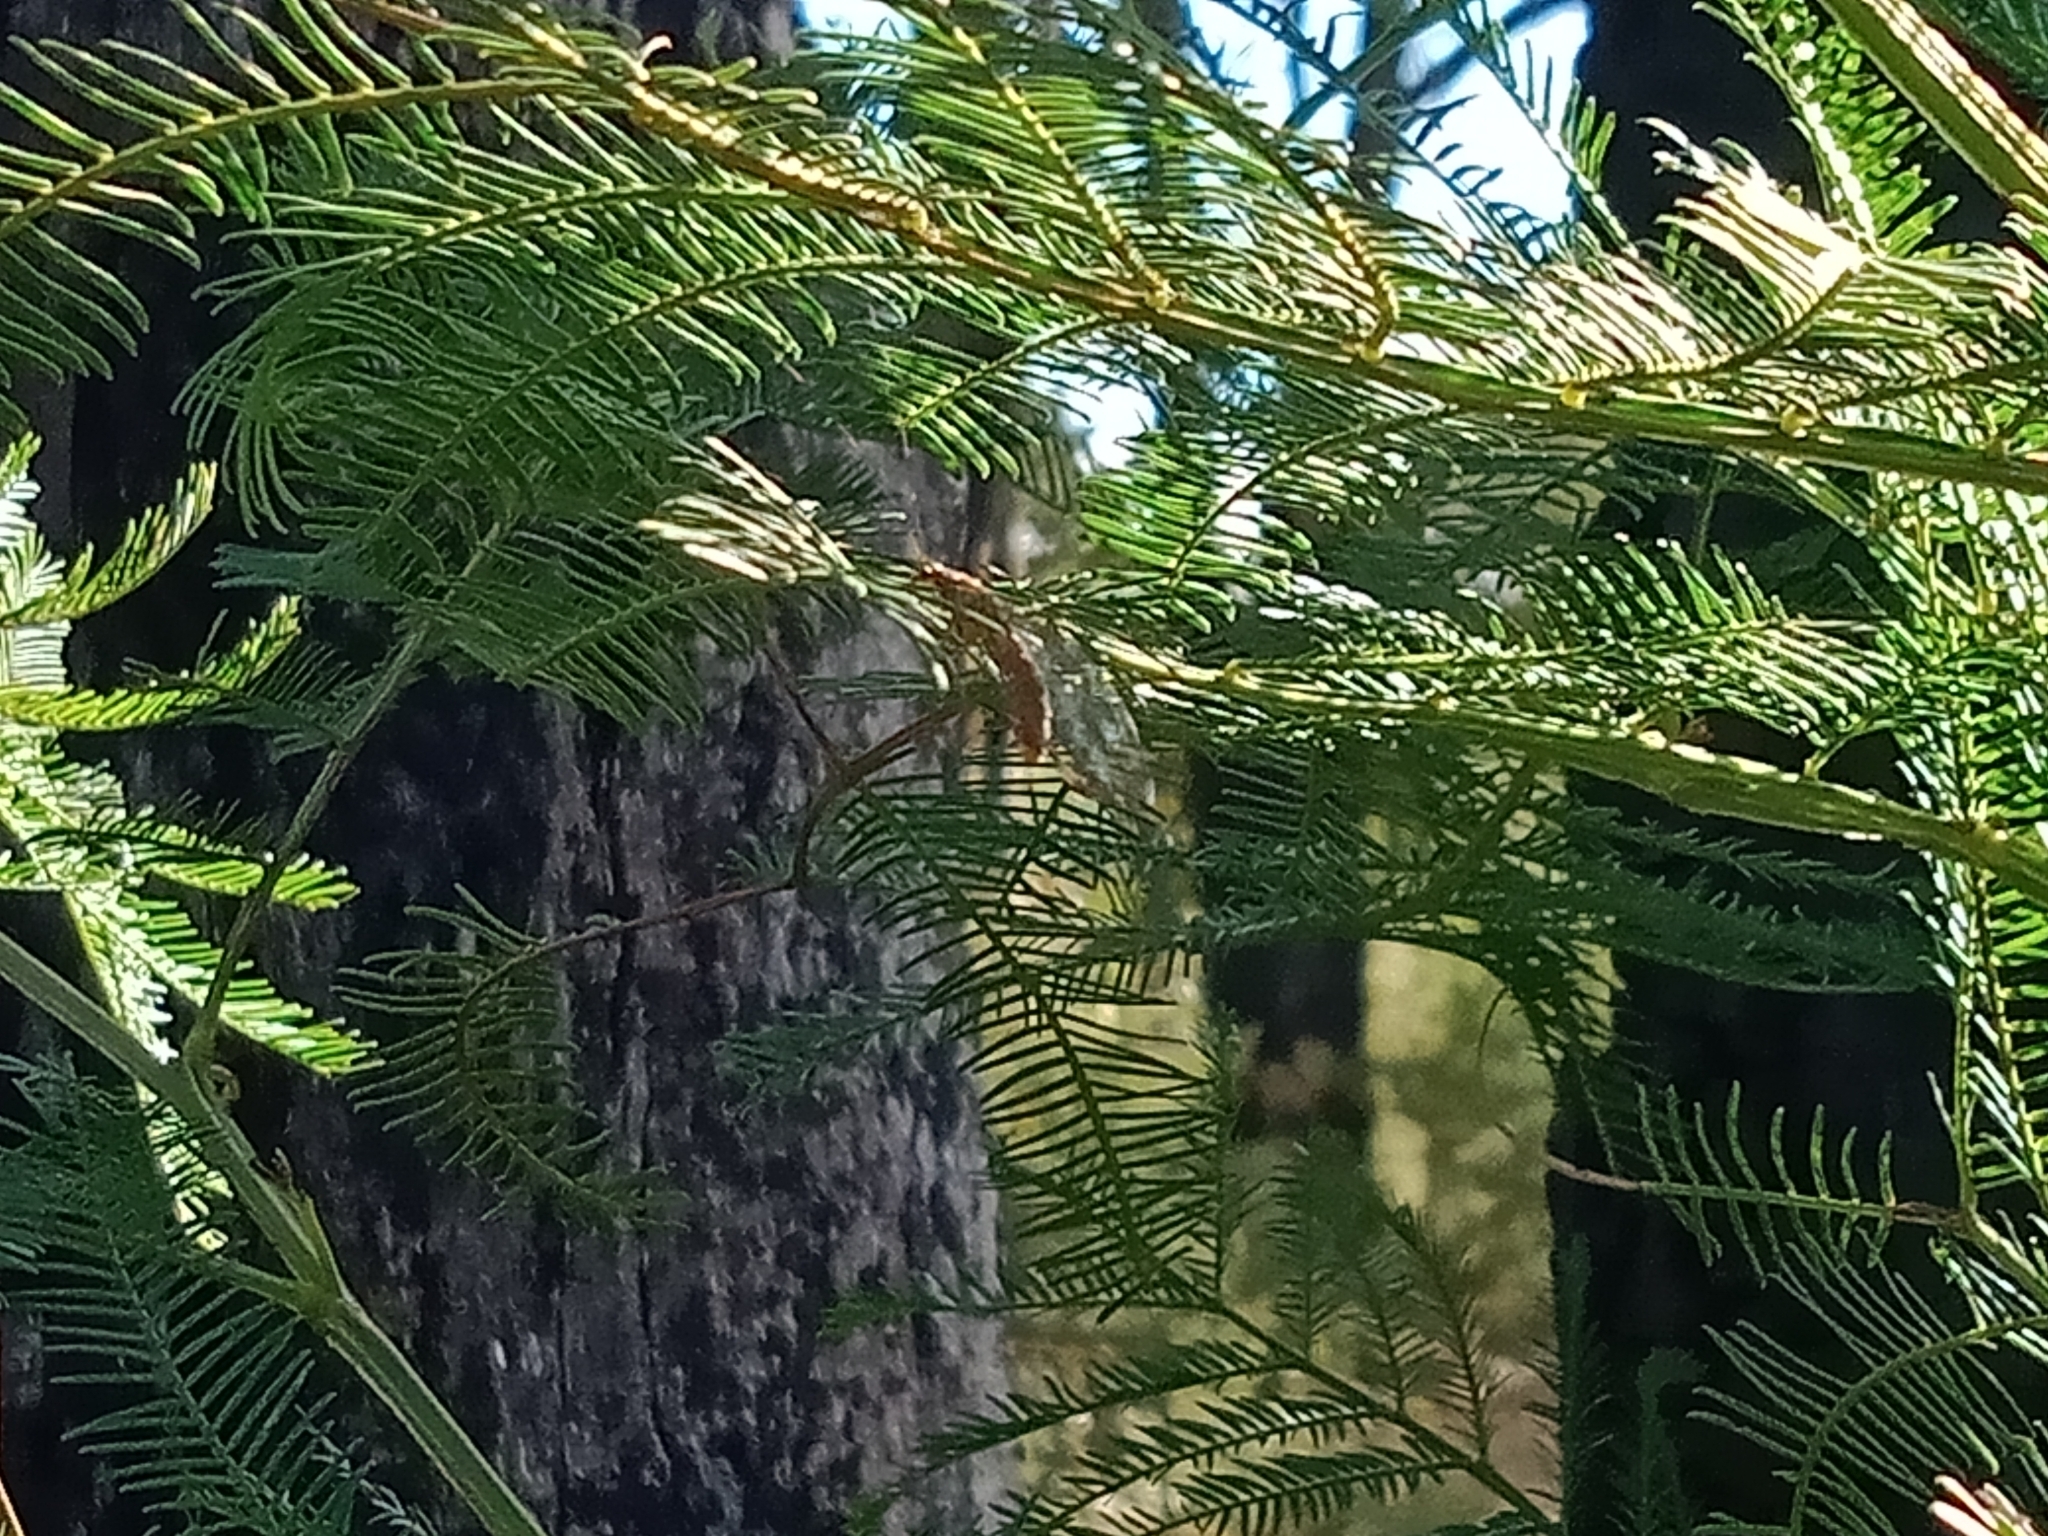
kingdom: Animalia
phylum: Arthropoda
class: Insecta
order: Neuroptera
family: Chrysopidae
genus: Dictyochrysa
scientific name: Dictyochrysa fulva
